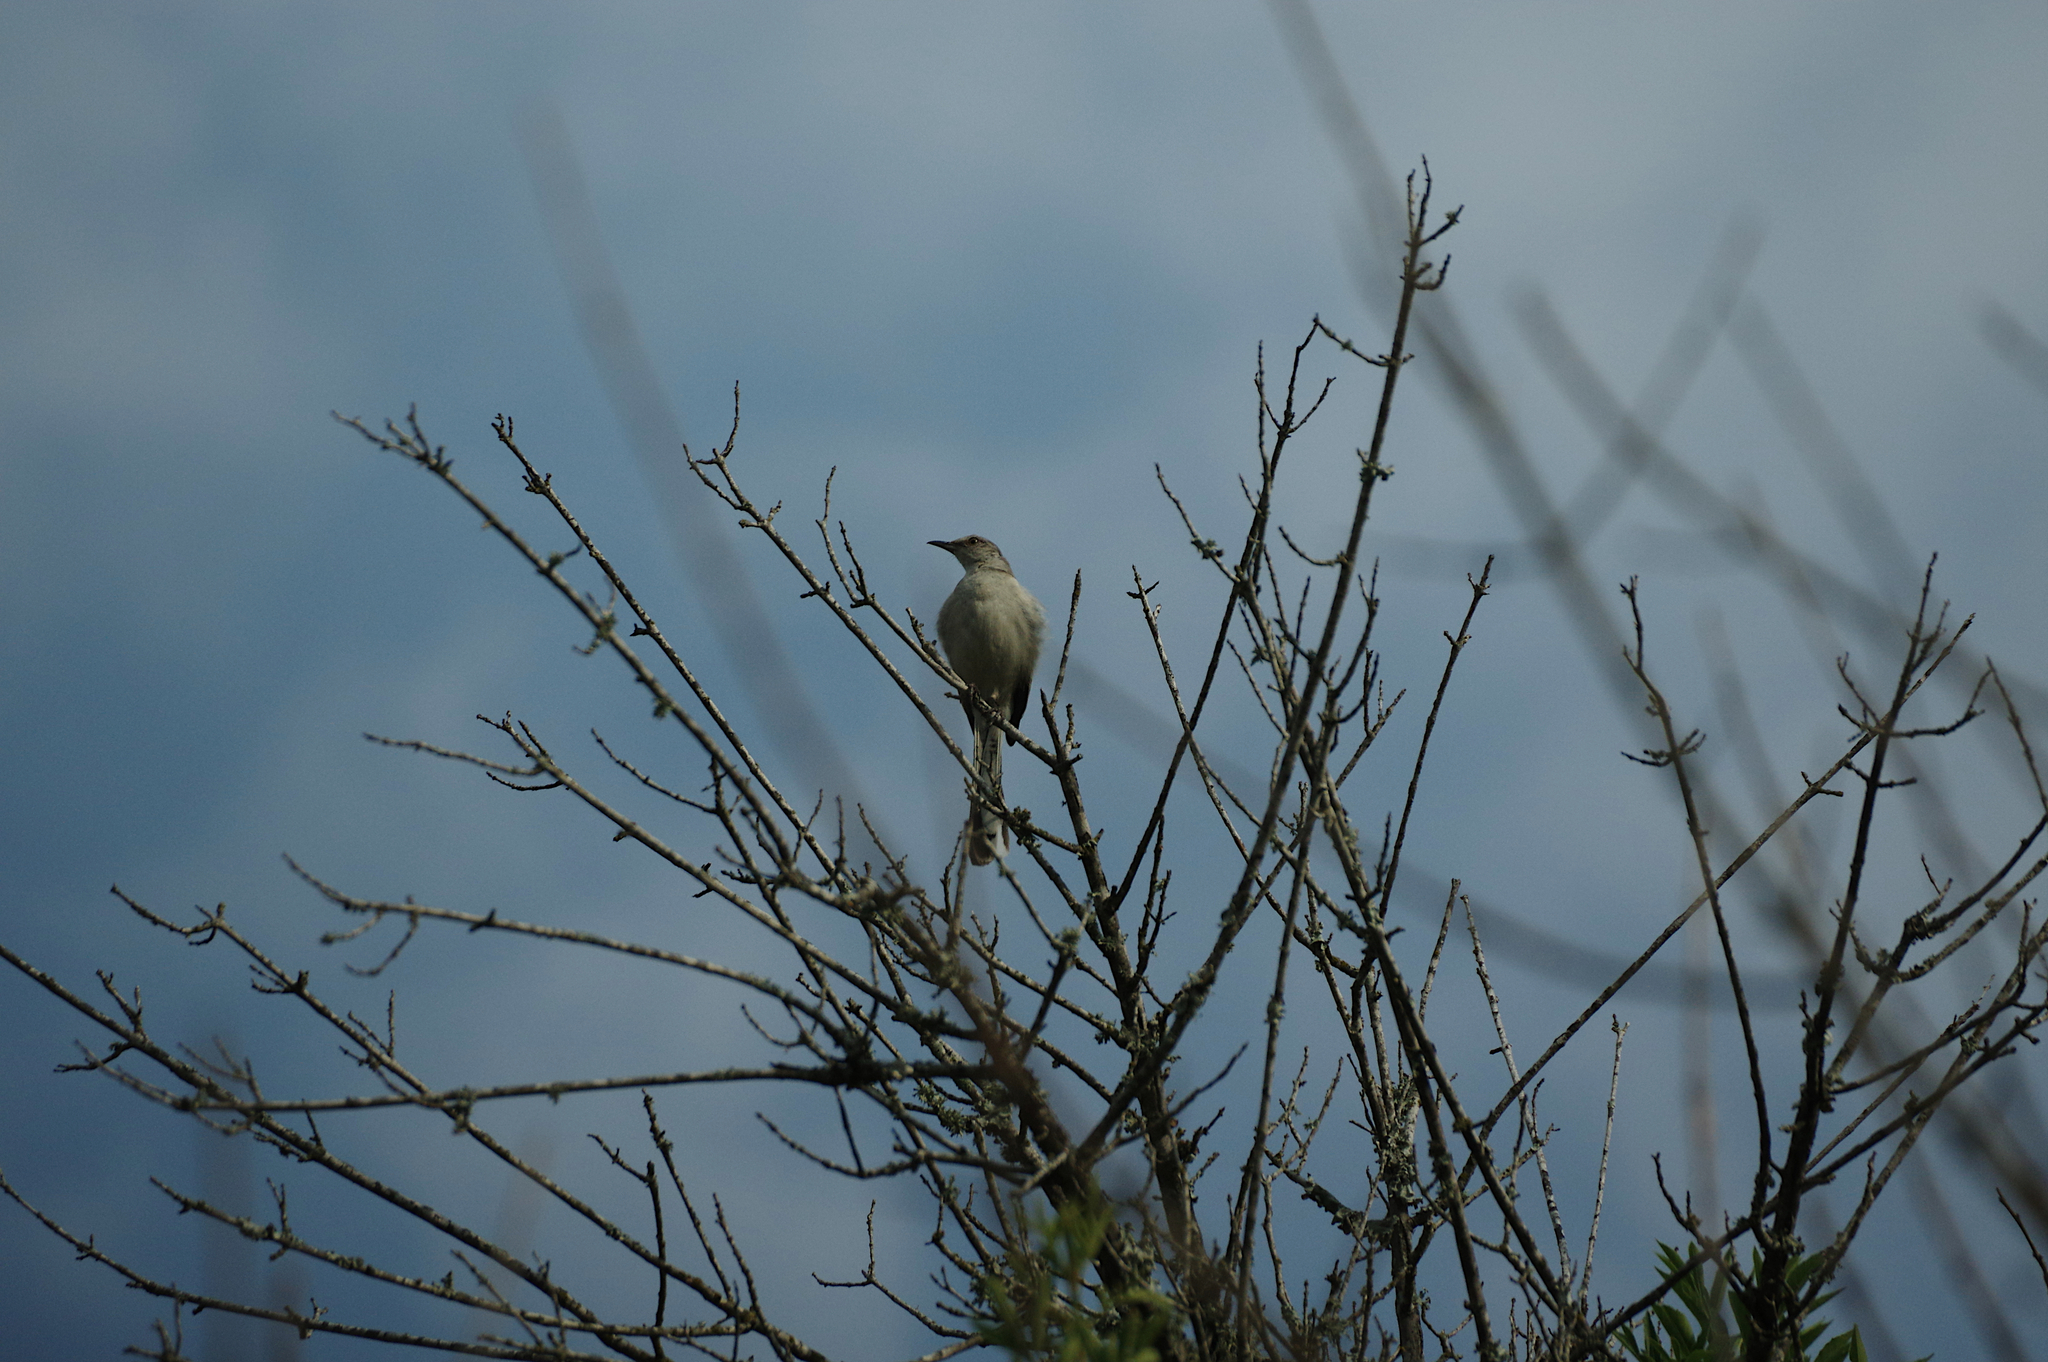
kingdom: Animalia
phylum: Chordata
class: Aves
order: Passeriformes
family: Mimidae
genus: Mimus
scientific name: Mimus polyglottos
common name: Northern mockingbird
